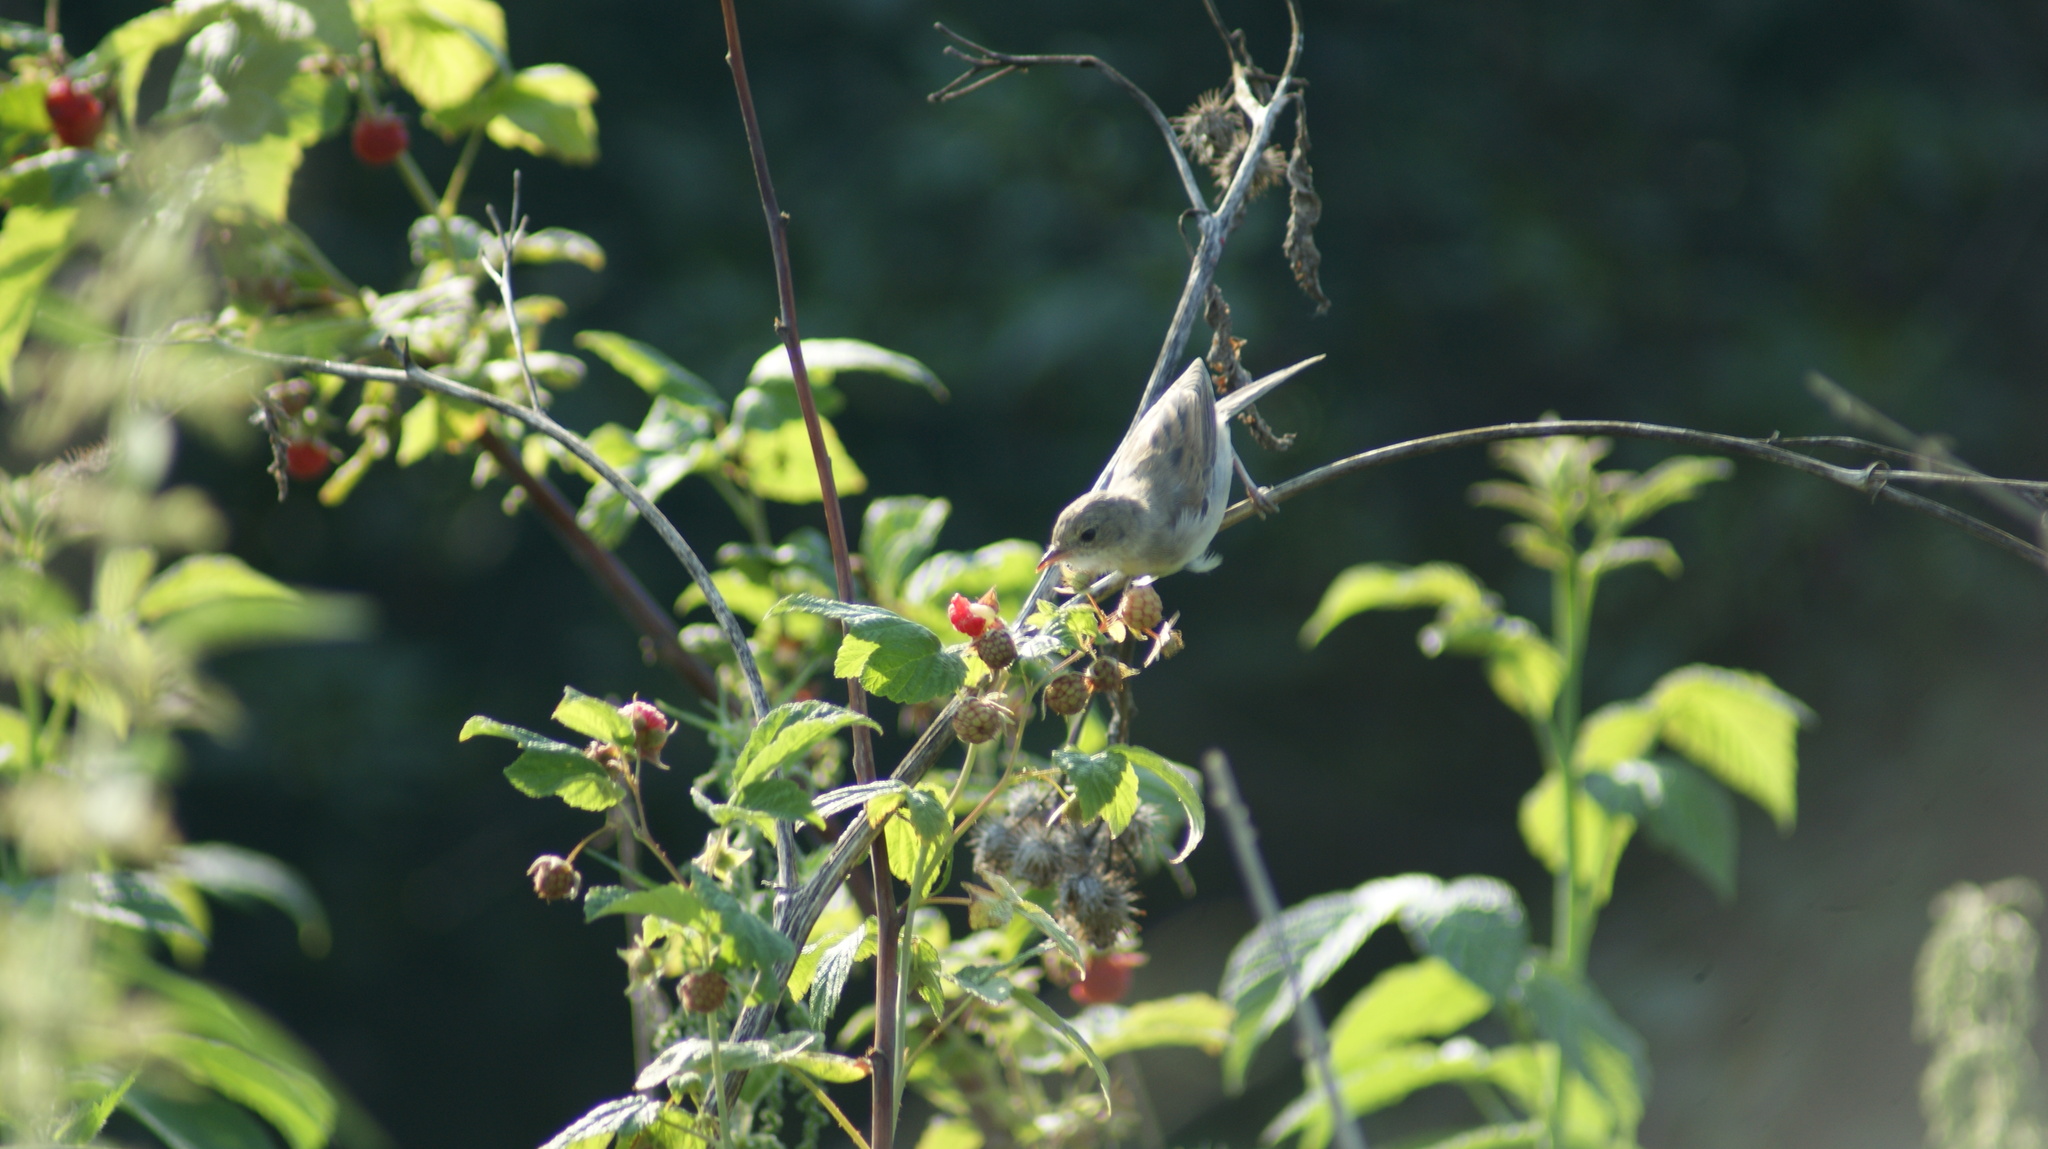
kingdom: Animalia
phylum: Chordata
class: Aves
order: Passeriformes
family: Sylviidae
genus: Sylvia
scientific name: Sylvia communis
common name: Common whitethroat
